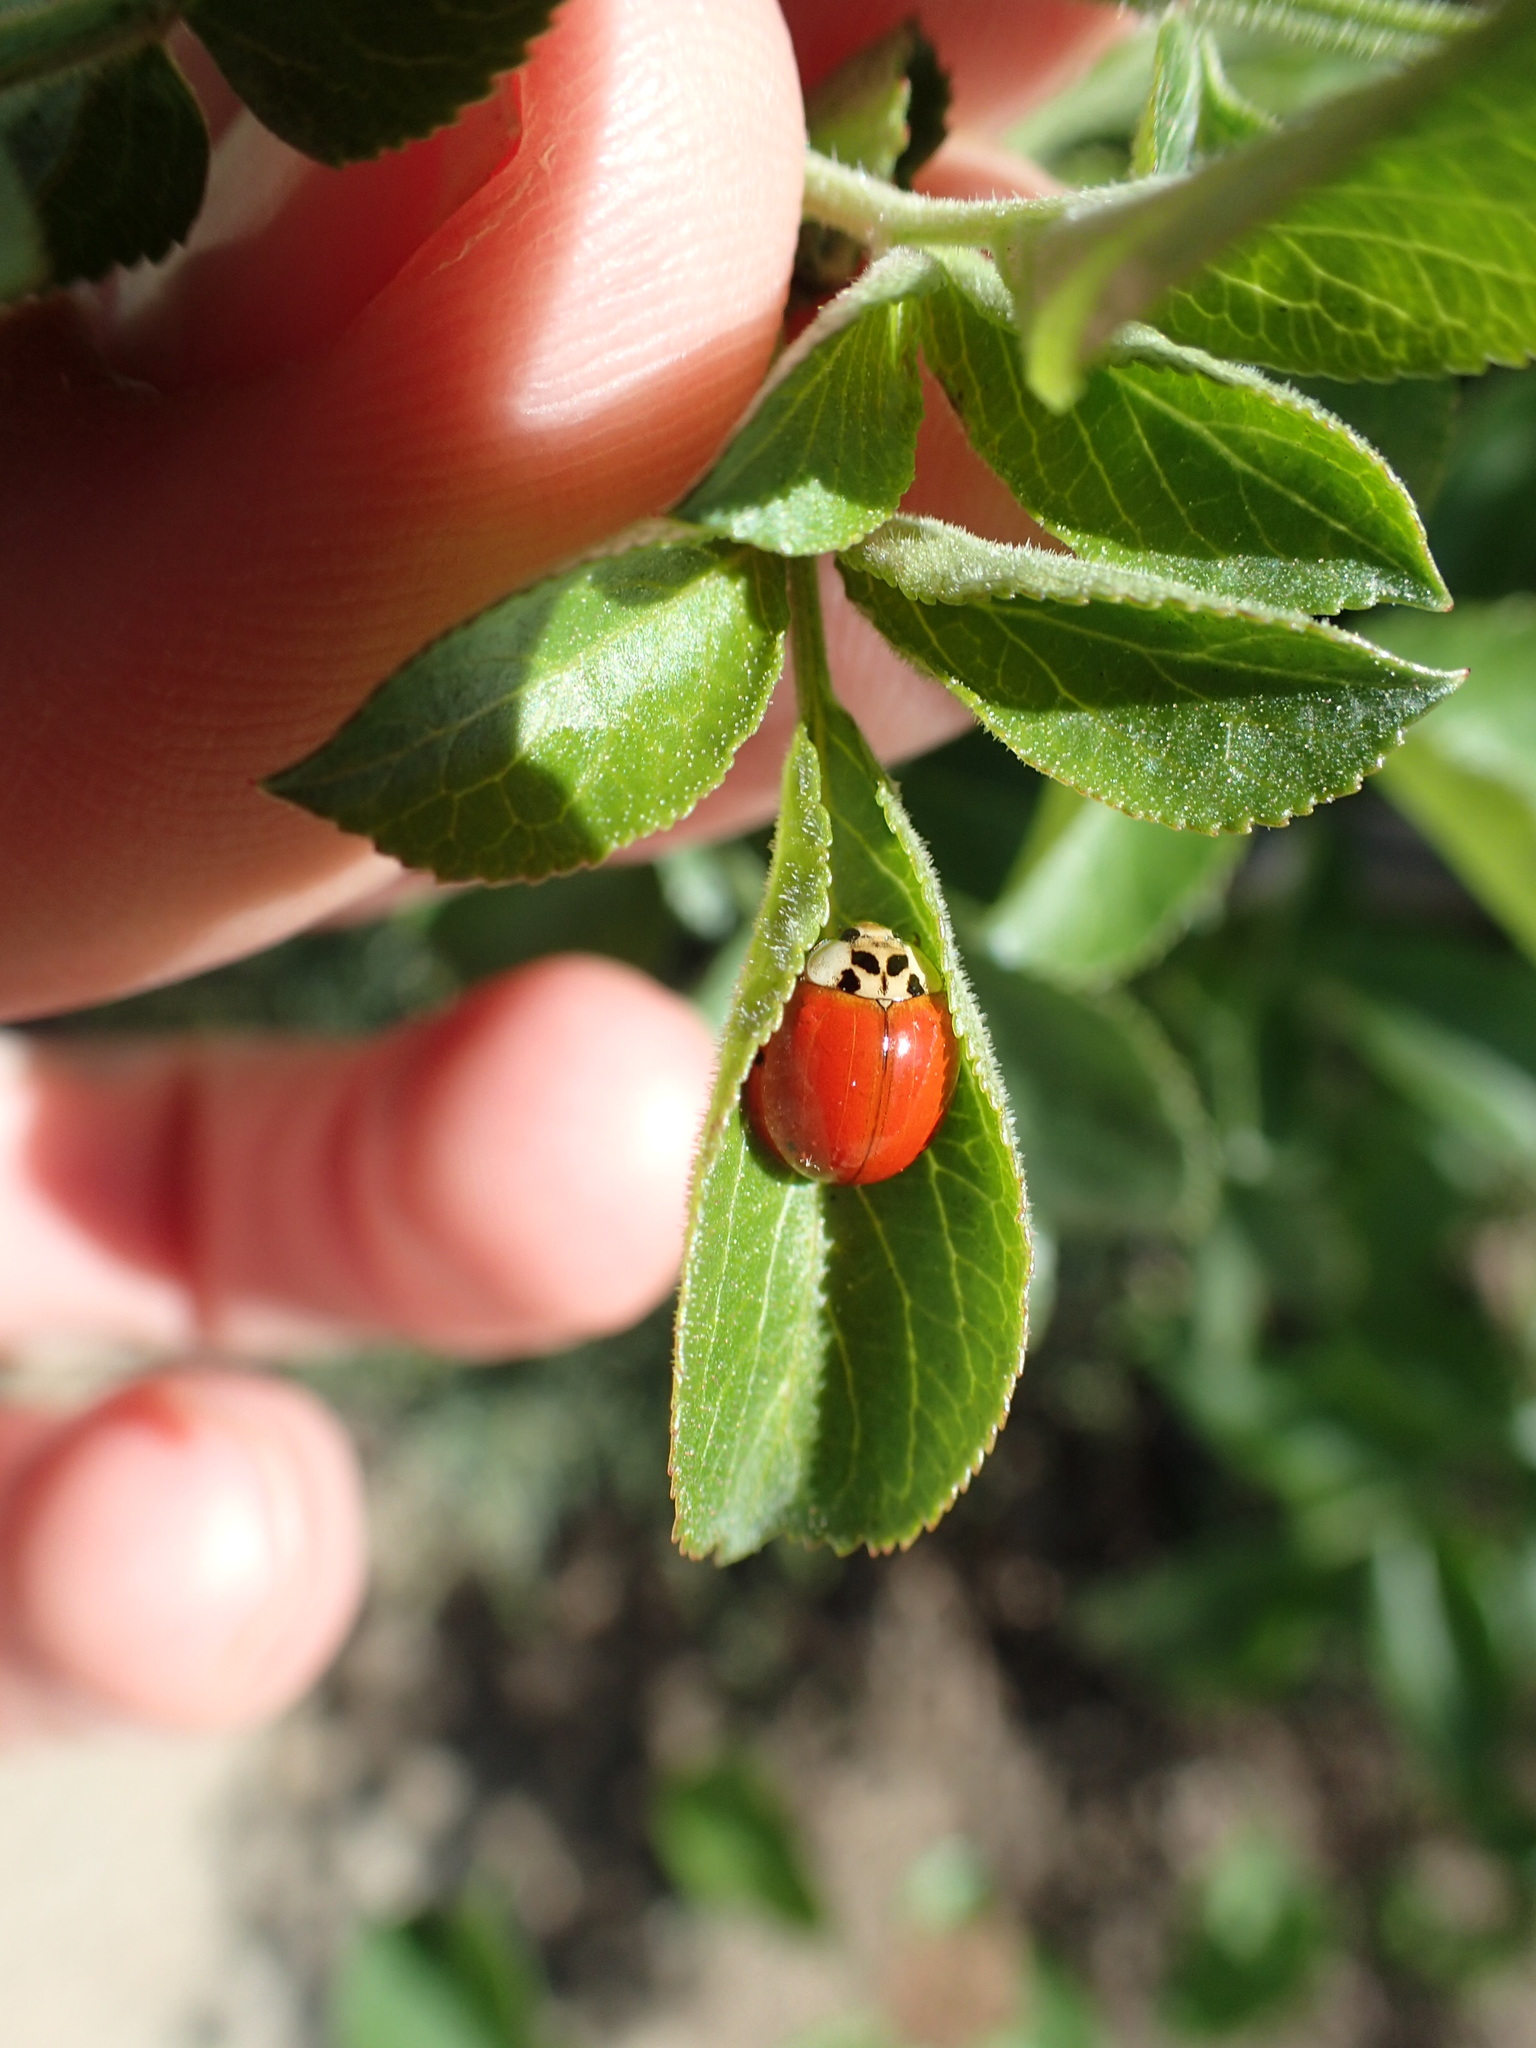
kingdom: Animalia
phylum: Arthropoda
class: Insecta
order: Coleoptera
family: Coccinellidae
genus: Harmonia
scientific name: Harmonia axyridis
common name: Harlequin ladybird
